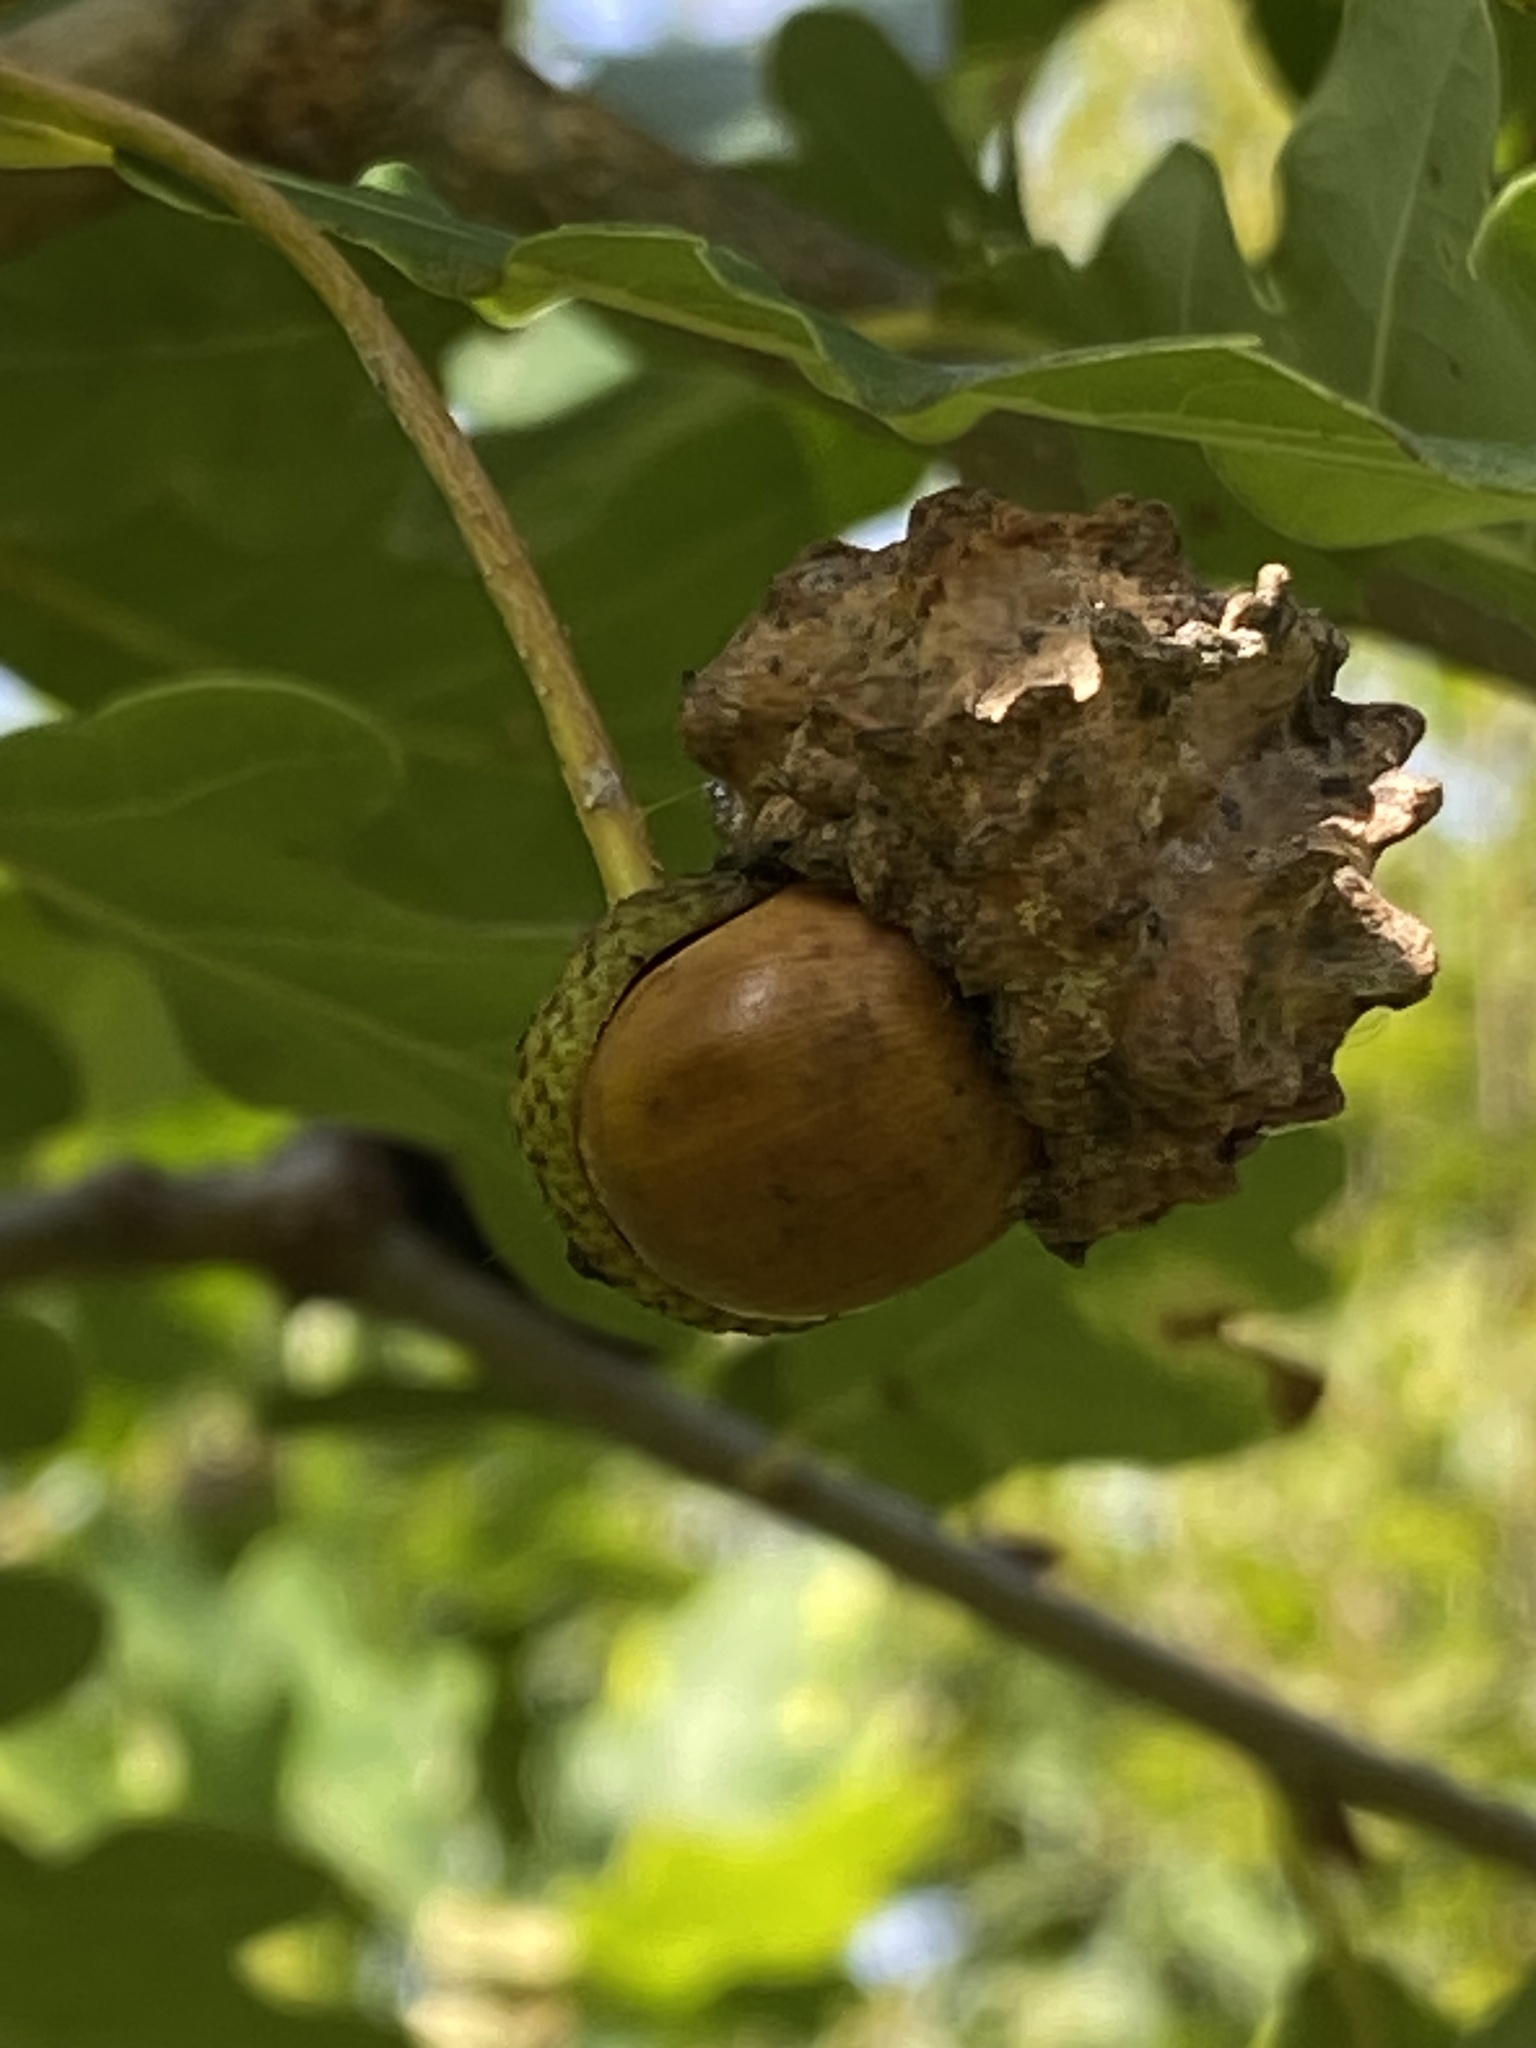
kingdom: Animalia
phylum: Arthropoda
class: Insecta
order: Hymenoptera
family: Cynipidae
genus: Andricus
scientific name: Andricus quercuscalicis
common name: Knopper gall
